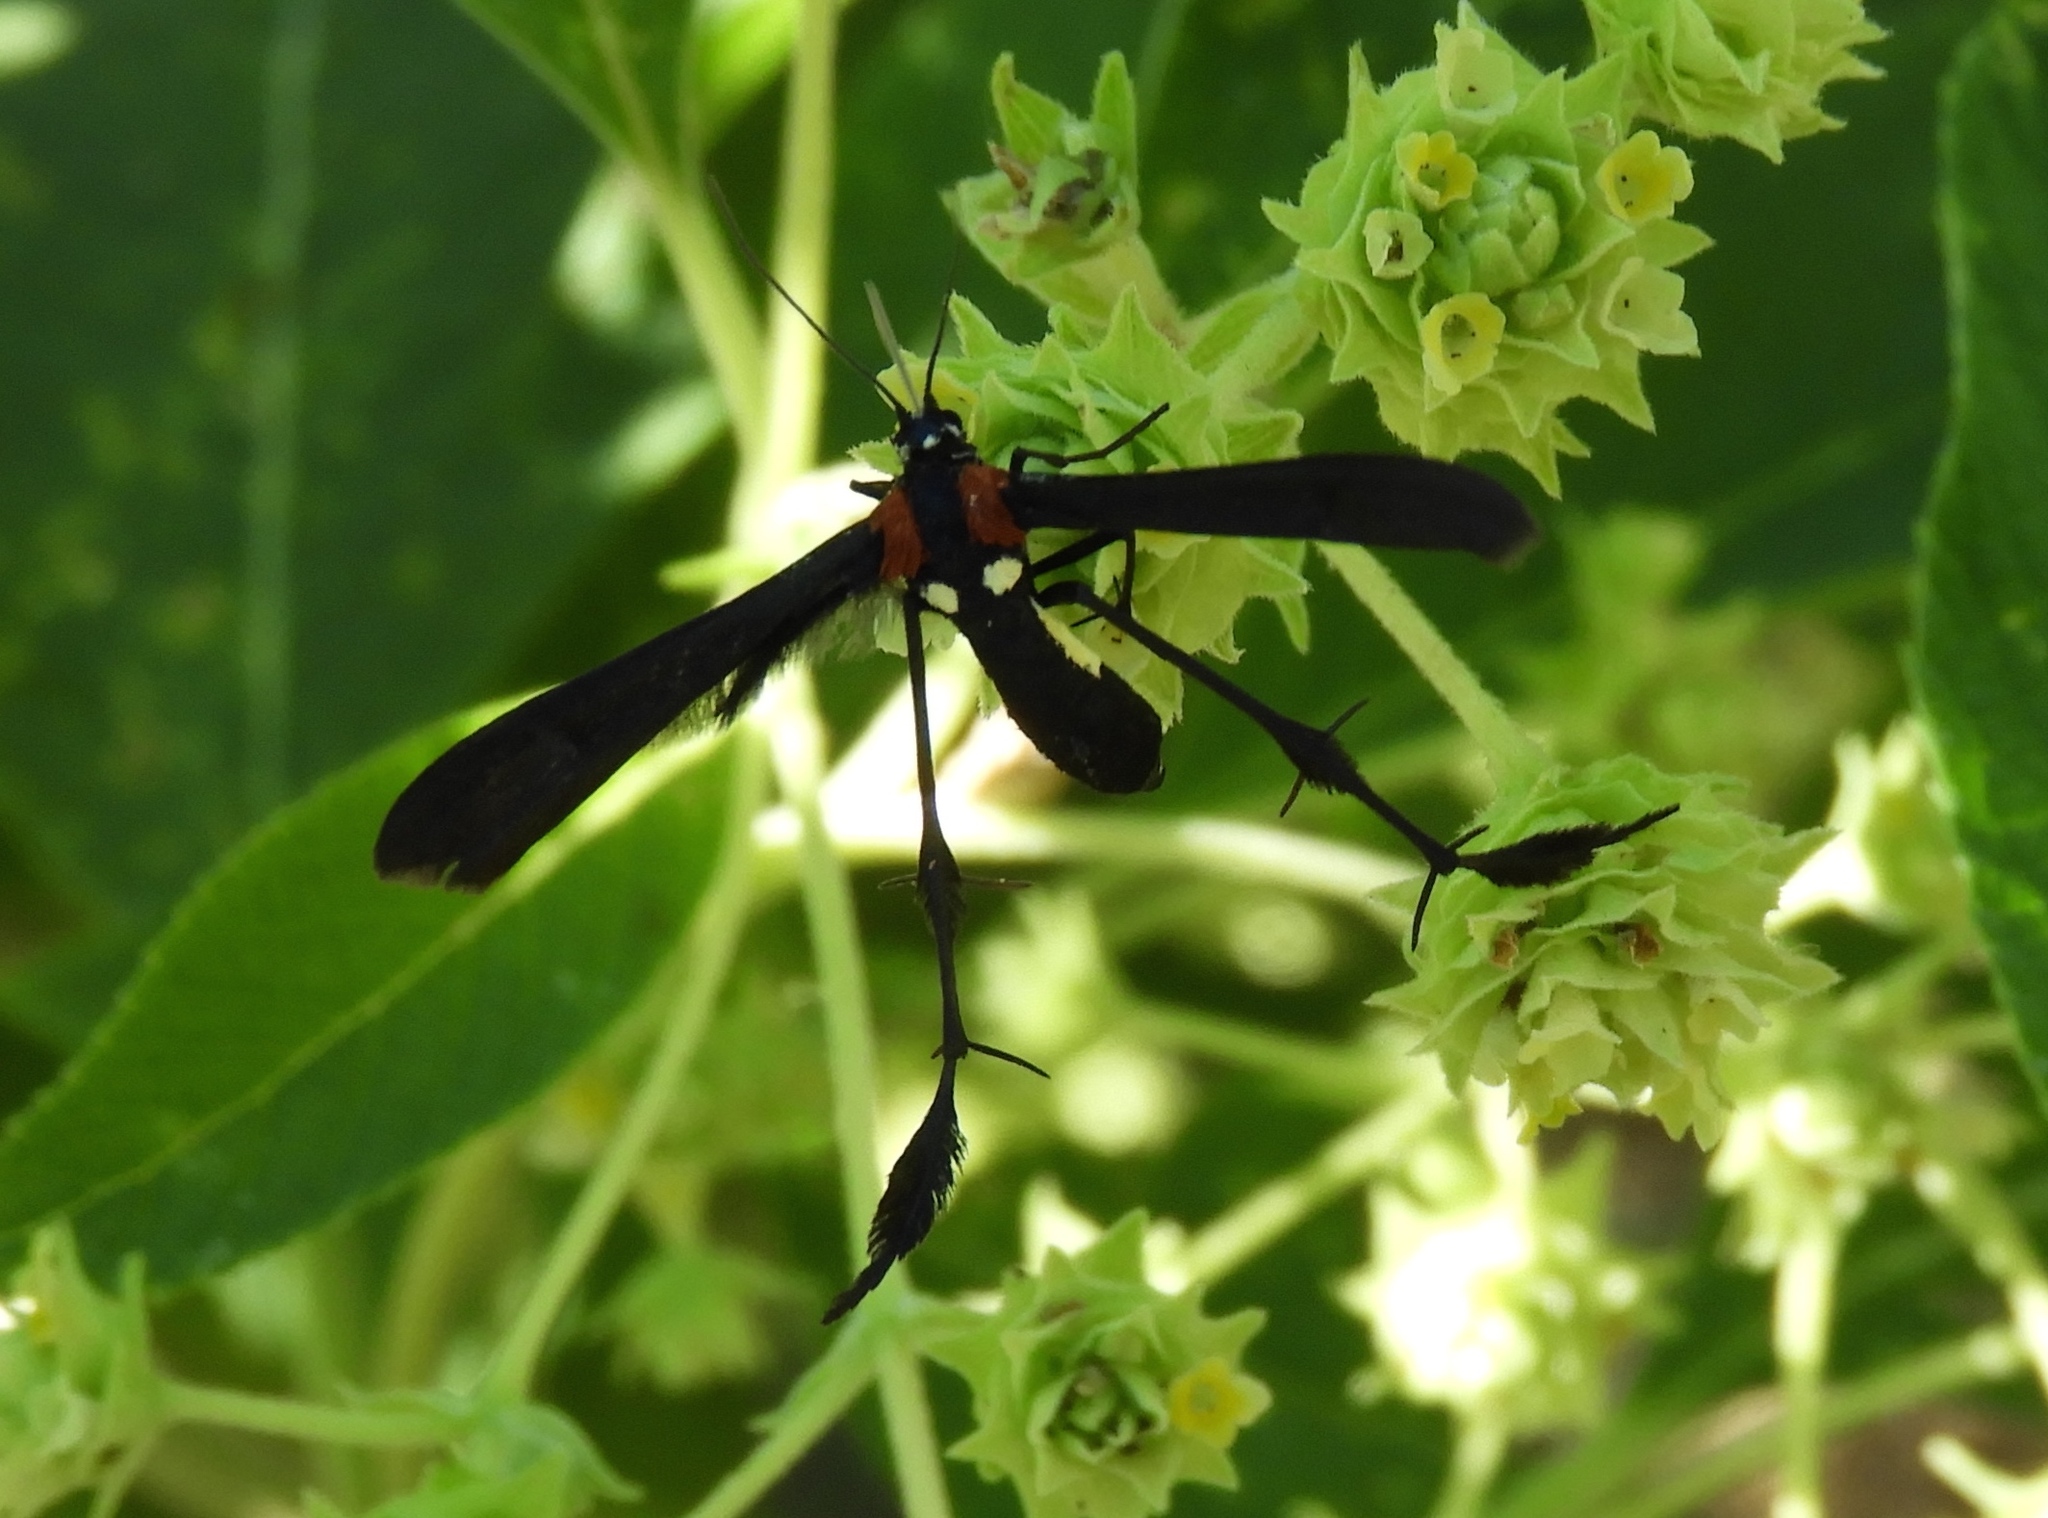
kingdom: Animalia
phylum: Arthropoda
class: Insecta
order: Lepidoptera
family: Pterophoridae
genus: Hellinsia
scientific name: Hellinsia chamelai
